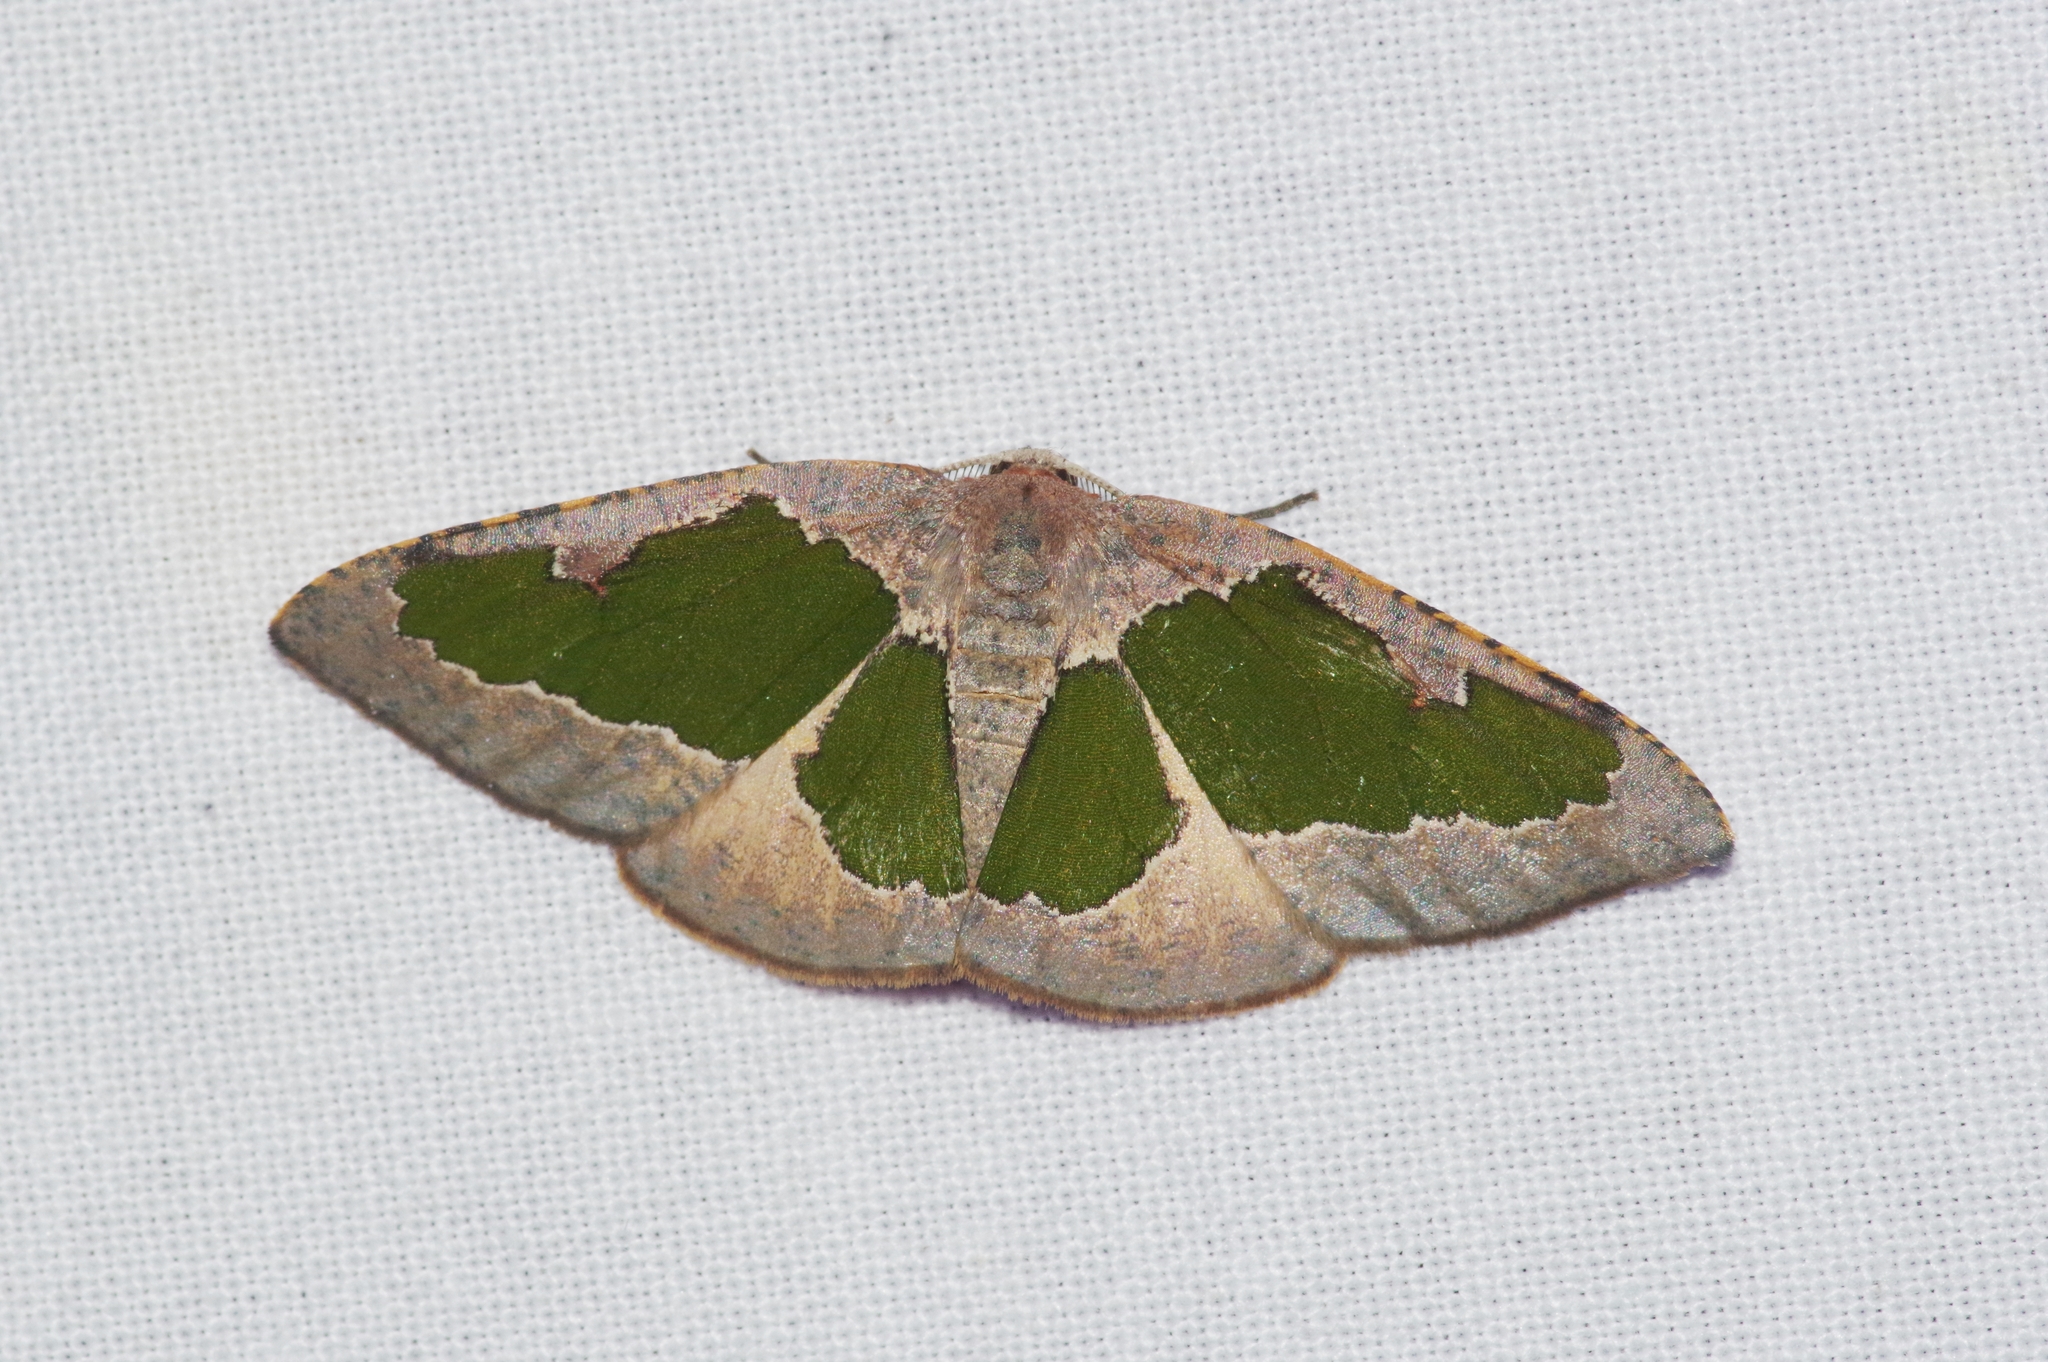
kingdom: Animalia
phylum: Arthropoda
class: Insecta
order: Lepidoptera
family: Geometridae
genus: Celenna
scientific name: Celenna festivaria
